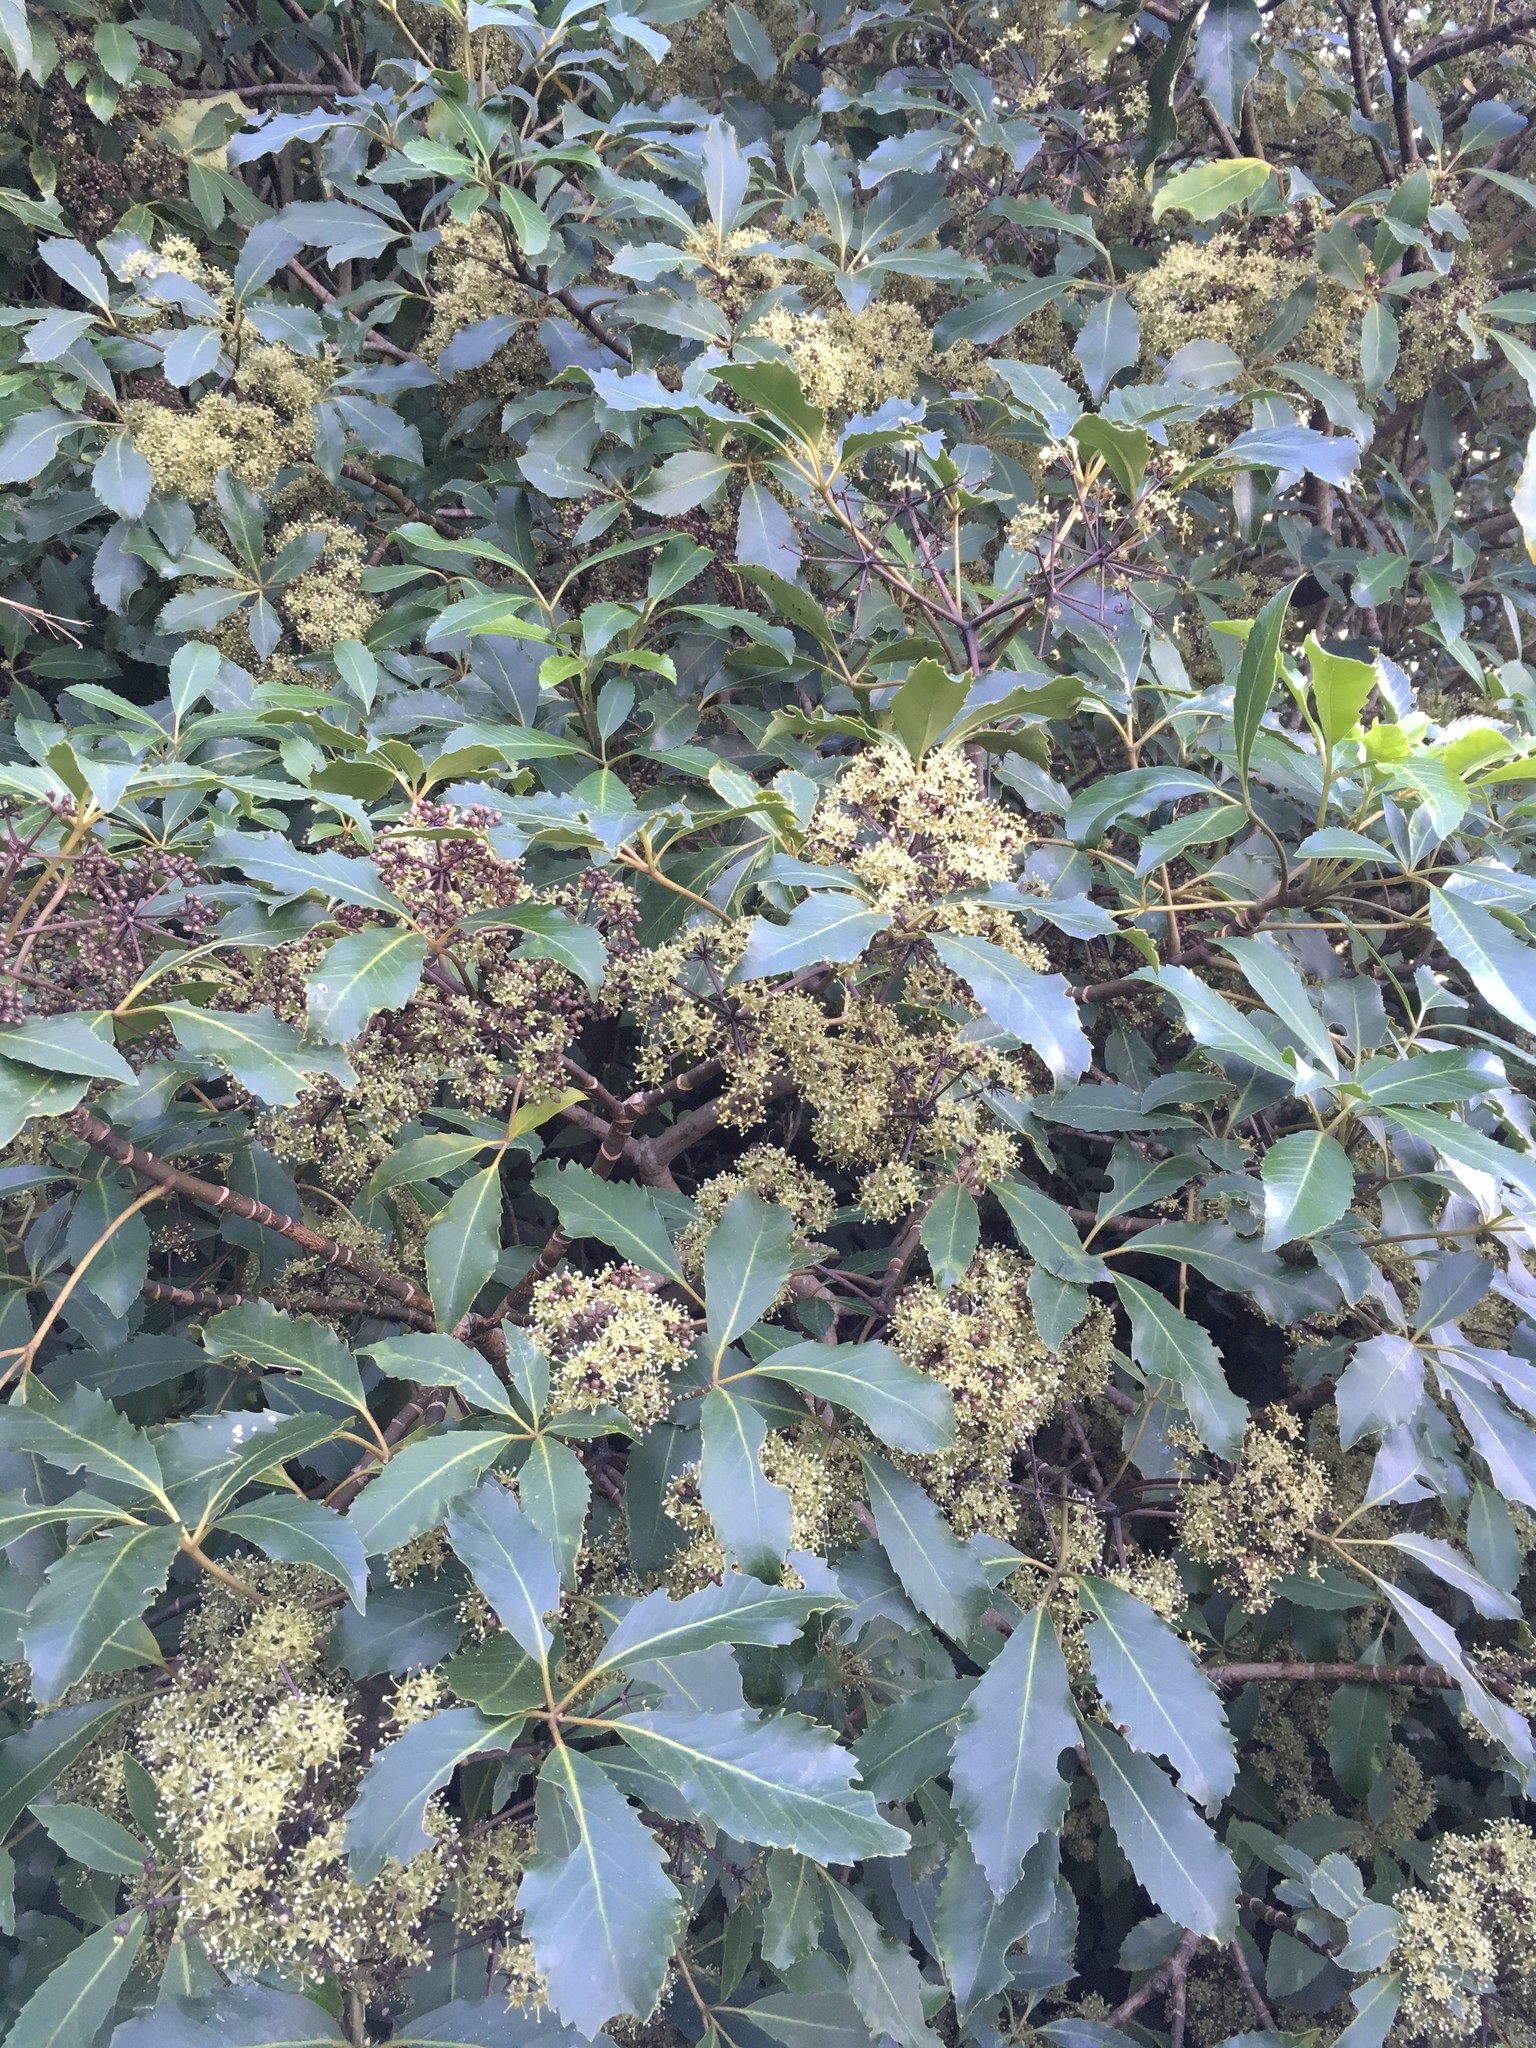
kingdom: Plantae
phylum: Tracheophyta
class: Magnoliopsida
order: Apiales
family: Araliaceae
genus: Neopanax
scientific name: Neopanax arboreus
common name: Five-fingers
